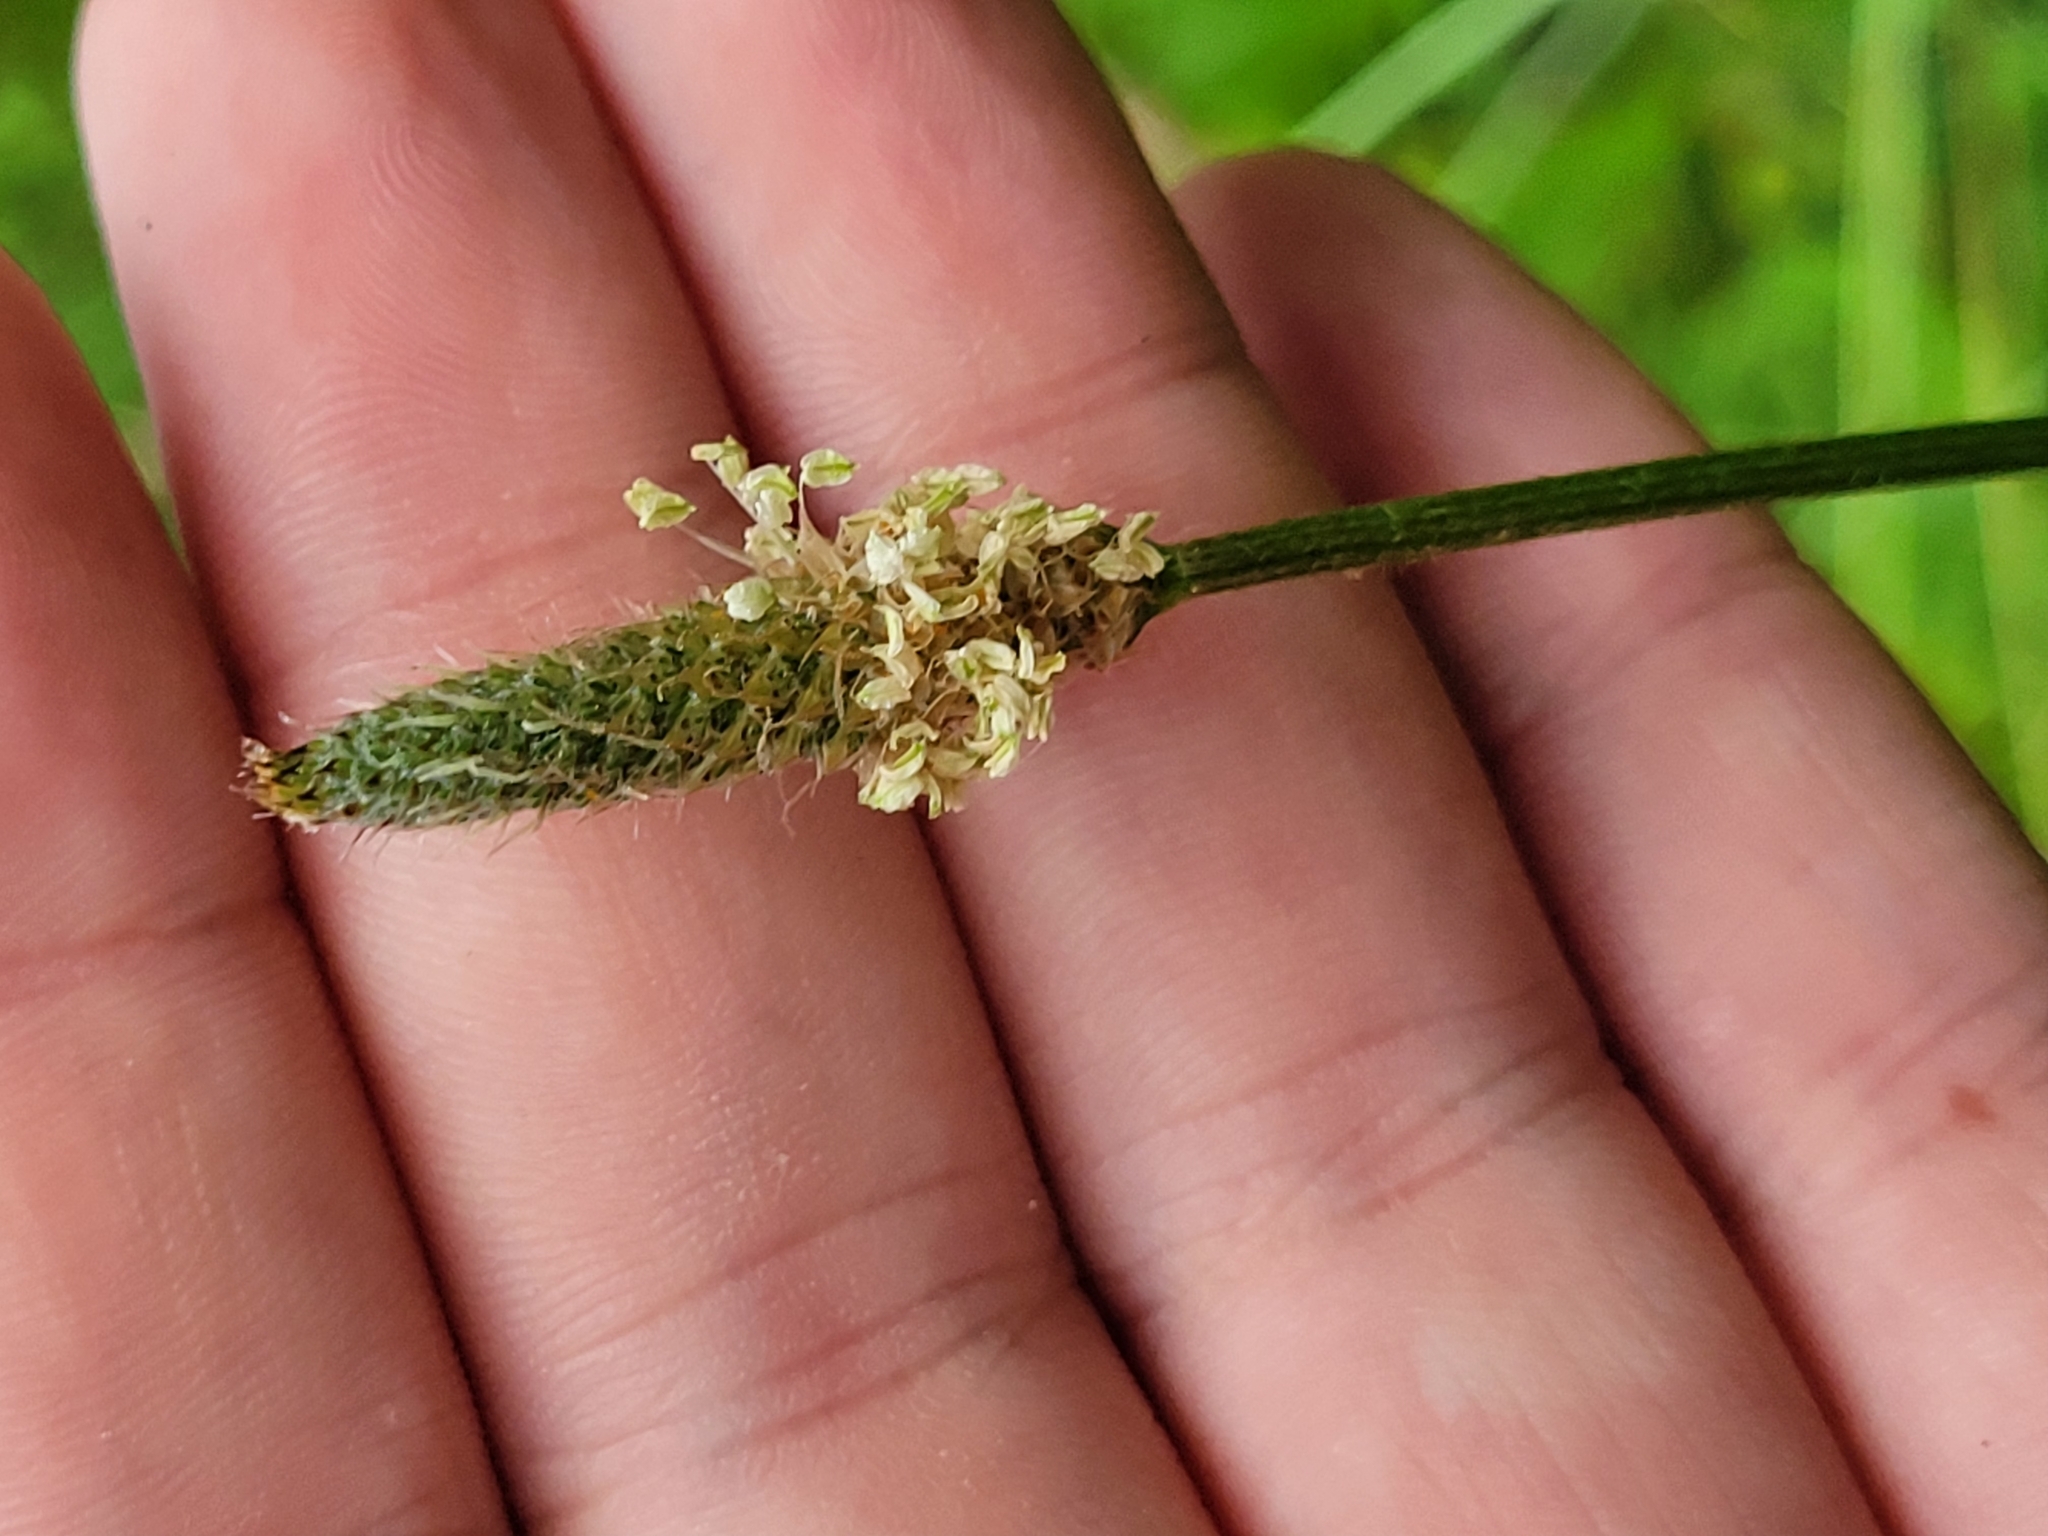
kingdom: Plantae
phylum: Tracheophyta
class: Magnoliopsida
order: Lamiales
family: Plantaginaceae
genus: Plantago
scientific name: Plantago lanceolata
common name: Ribwort plantain
